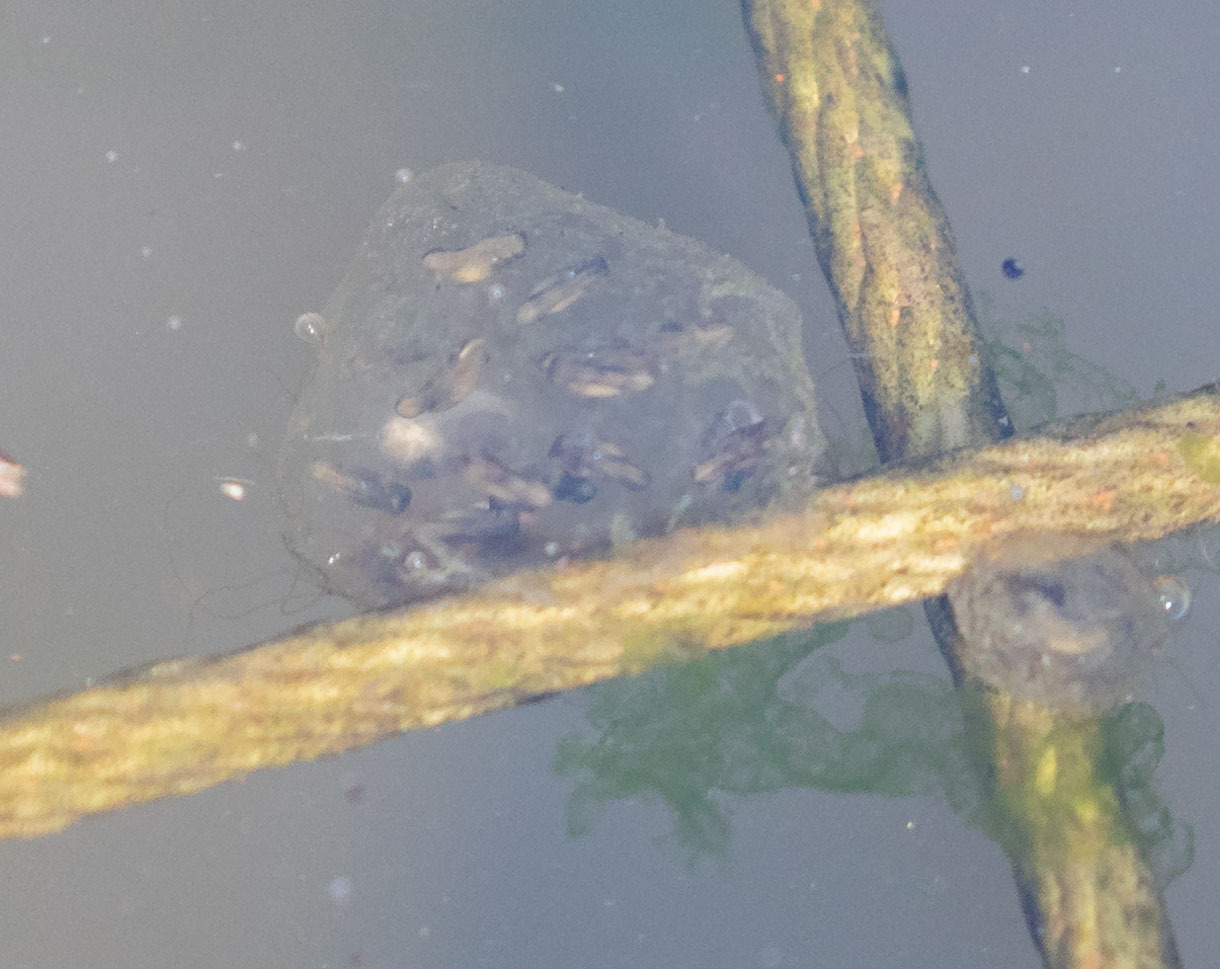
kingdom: Animalia
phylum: Chordata
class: Amphibia
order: Anura
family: Hylidae
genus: Pseudacris
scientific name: Pseudacris regilla
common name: Pacific chorus frog
